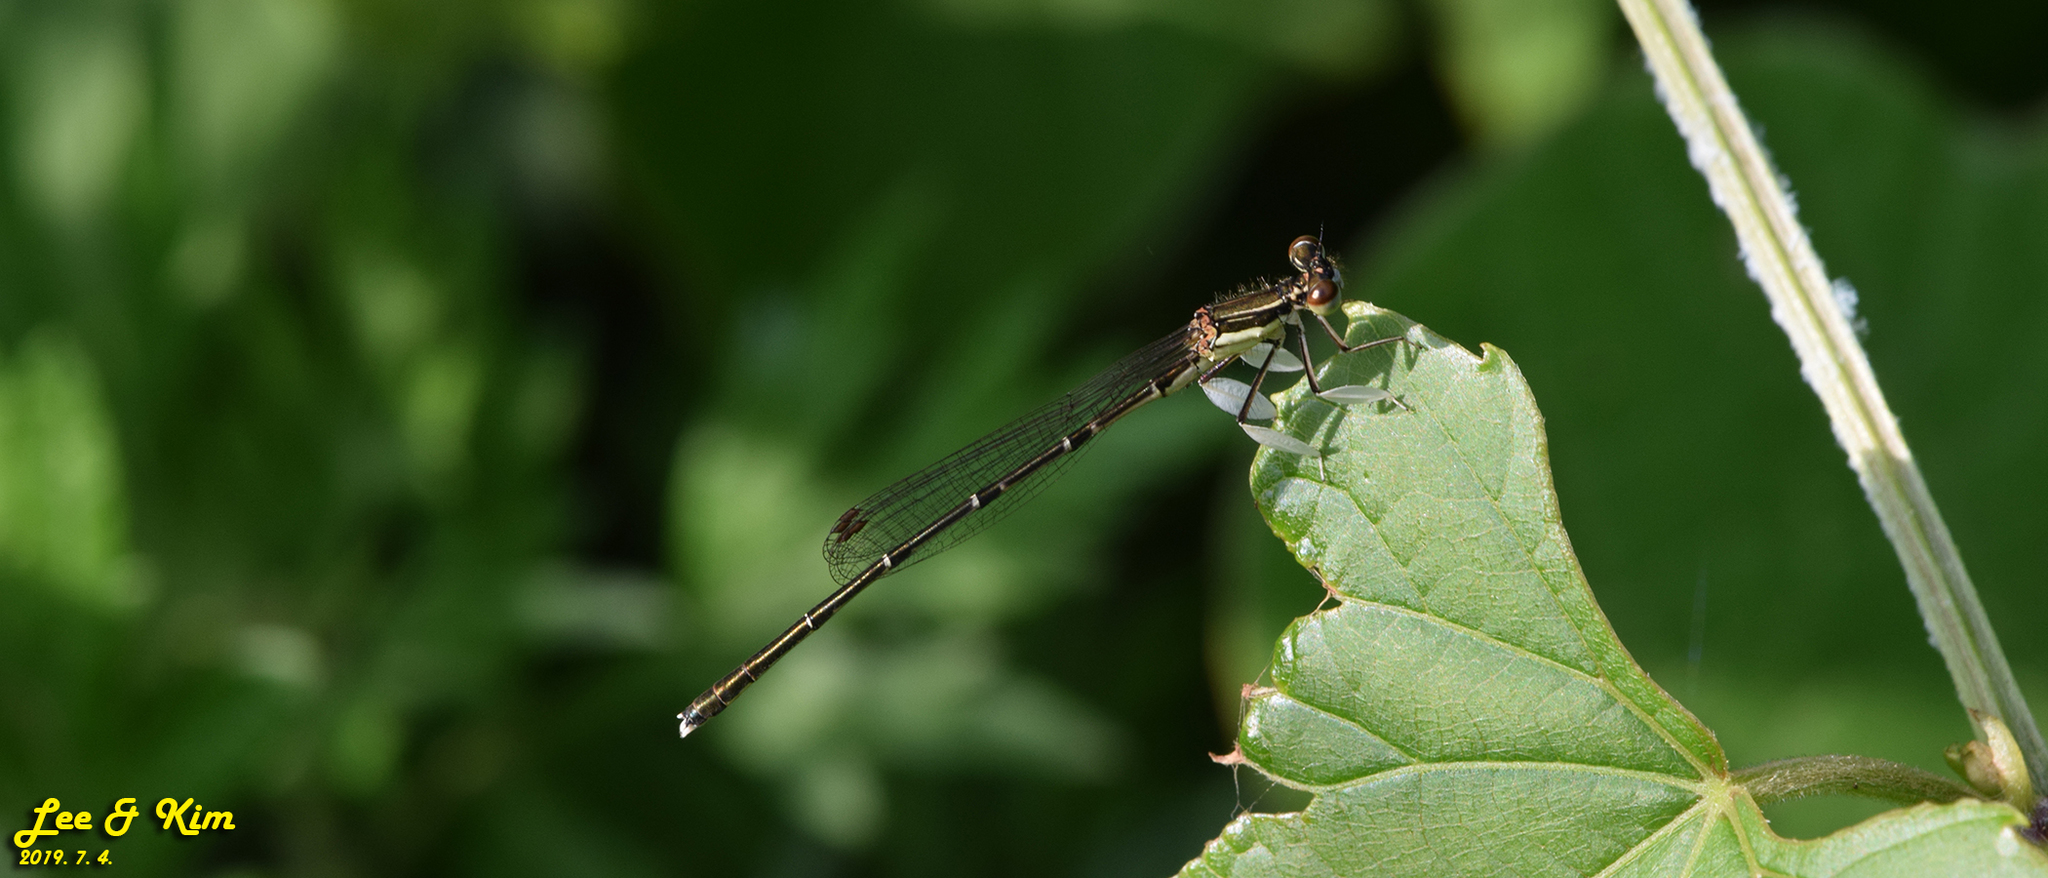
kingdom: Animalia
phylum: Arthropoda
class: Insecta
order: Odonata
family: Platycnemididae
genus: Platycnemis
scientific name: Platycnemis phyllopoda
